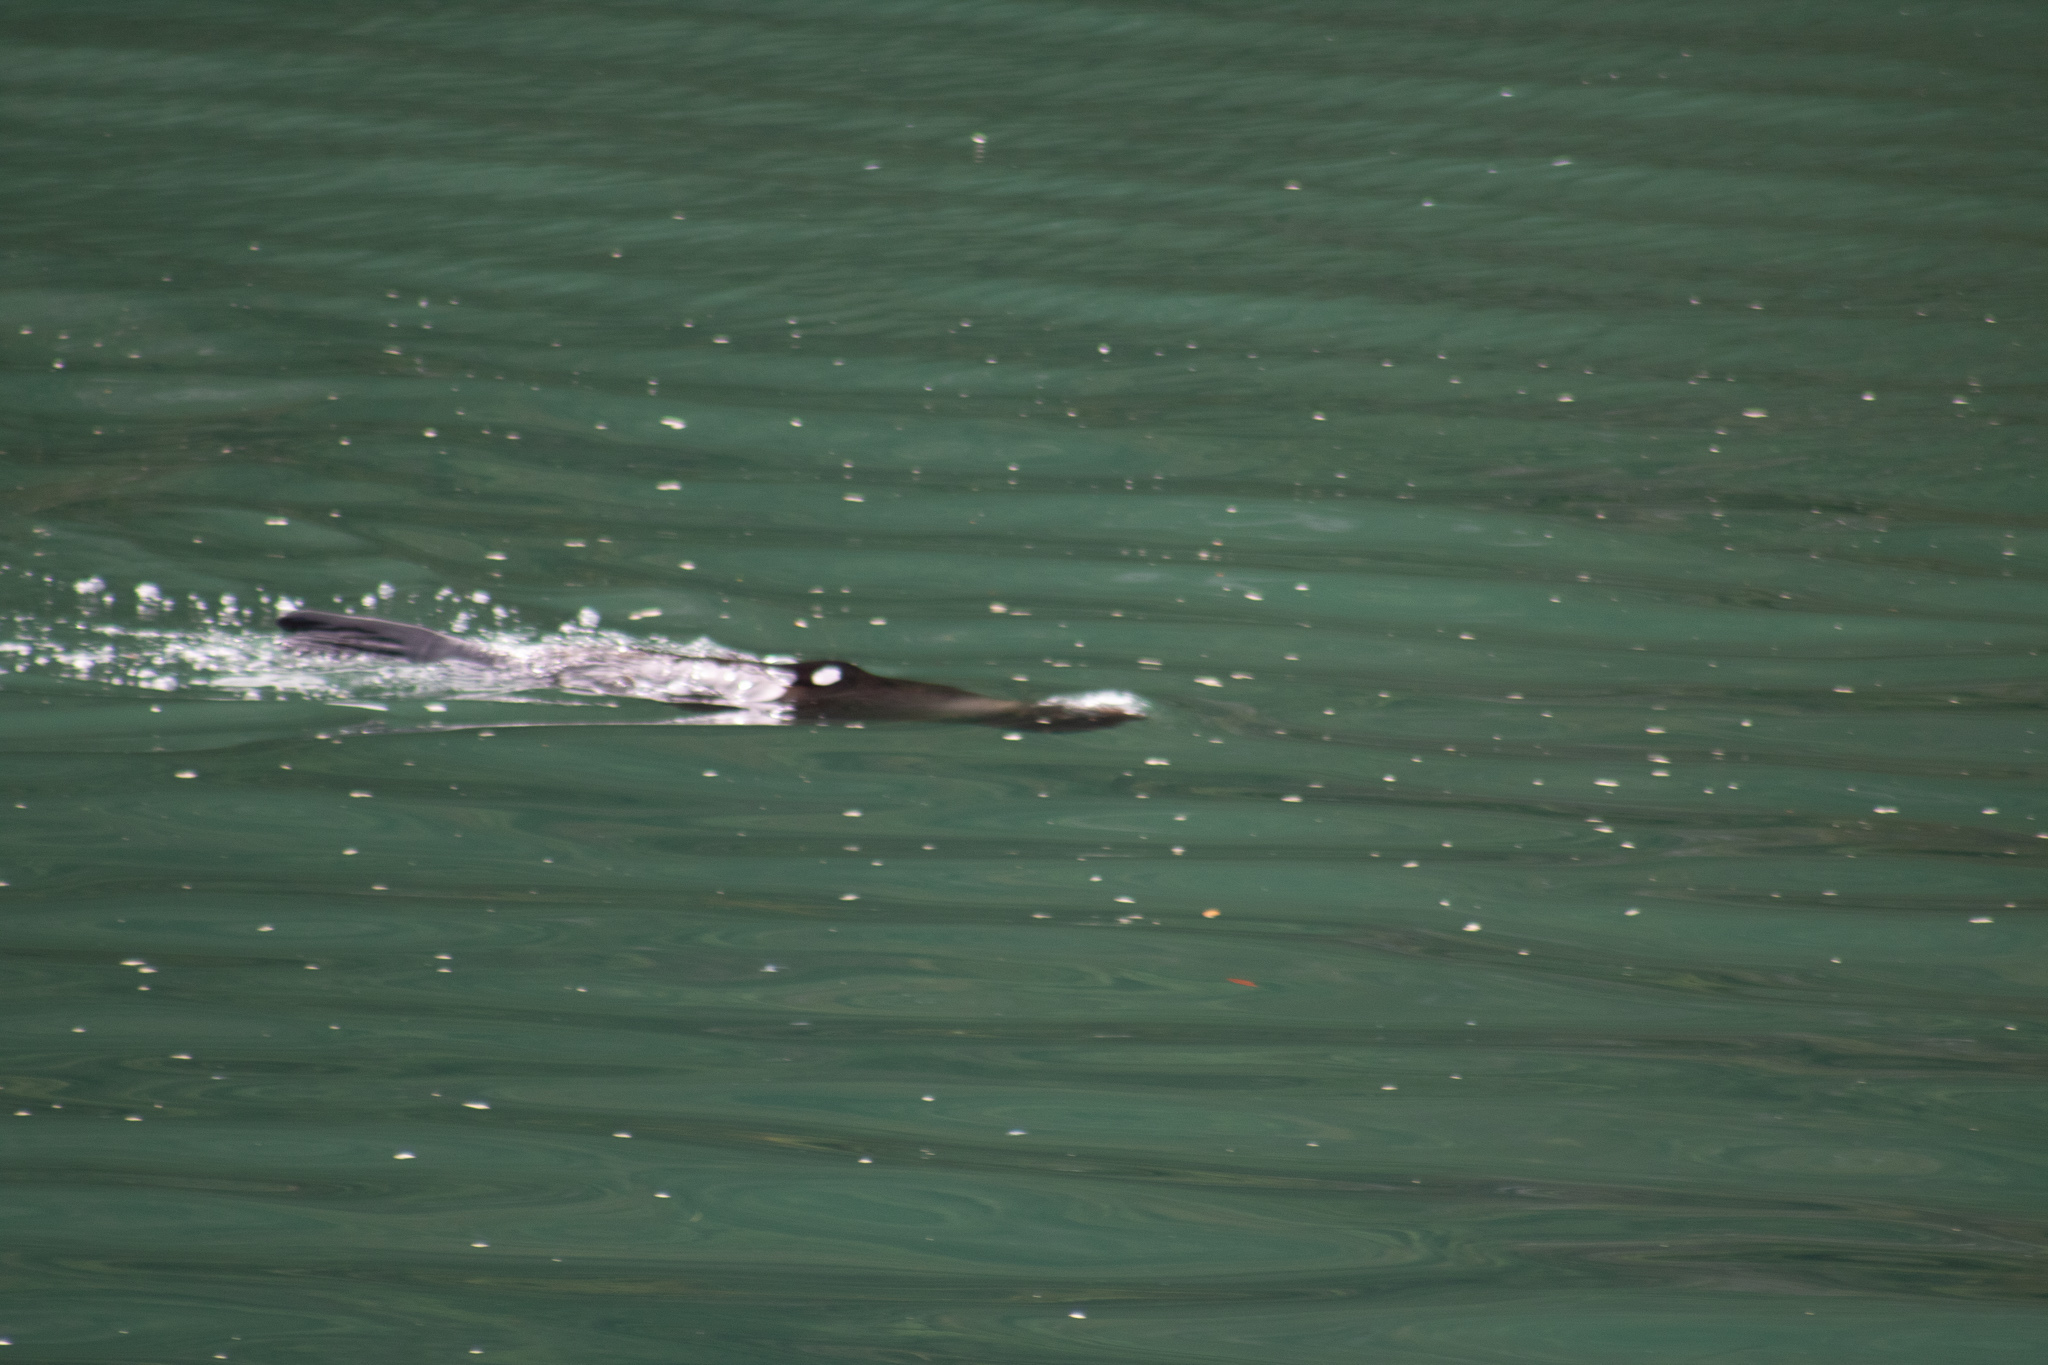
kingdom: Animalia
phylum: Chordata
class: Mammalia
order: Carnivora
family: Otariidae
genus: Arctocephalus
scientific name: Arctocephalus forsteri
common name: New zealand fur seal
